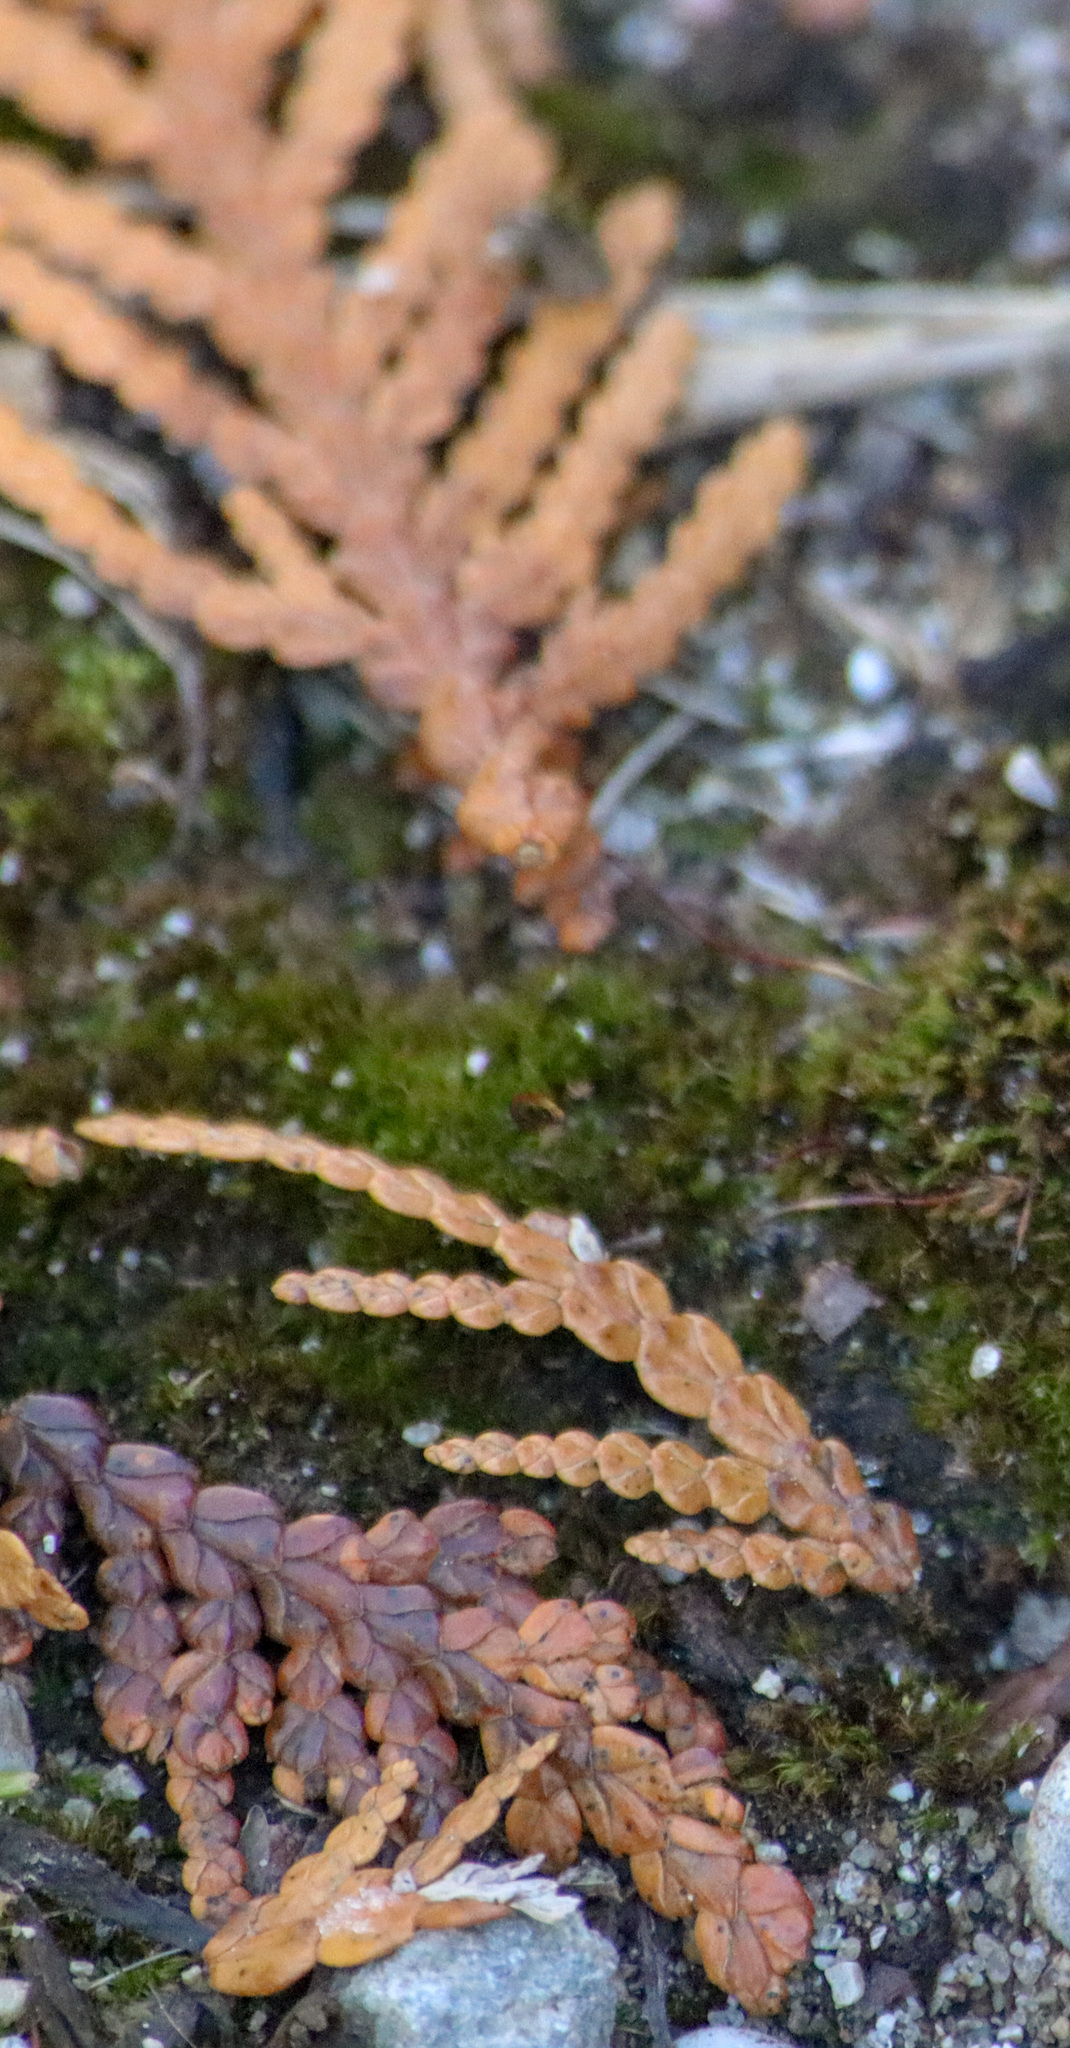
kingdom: Plantae
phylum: Tracheophyta
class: Pinopsida
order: Pinales
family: Cupressaceae
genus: Thuja
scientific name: Thuja occidentalis
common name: Northern white-cedar
